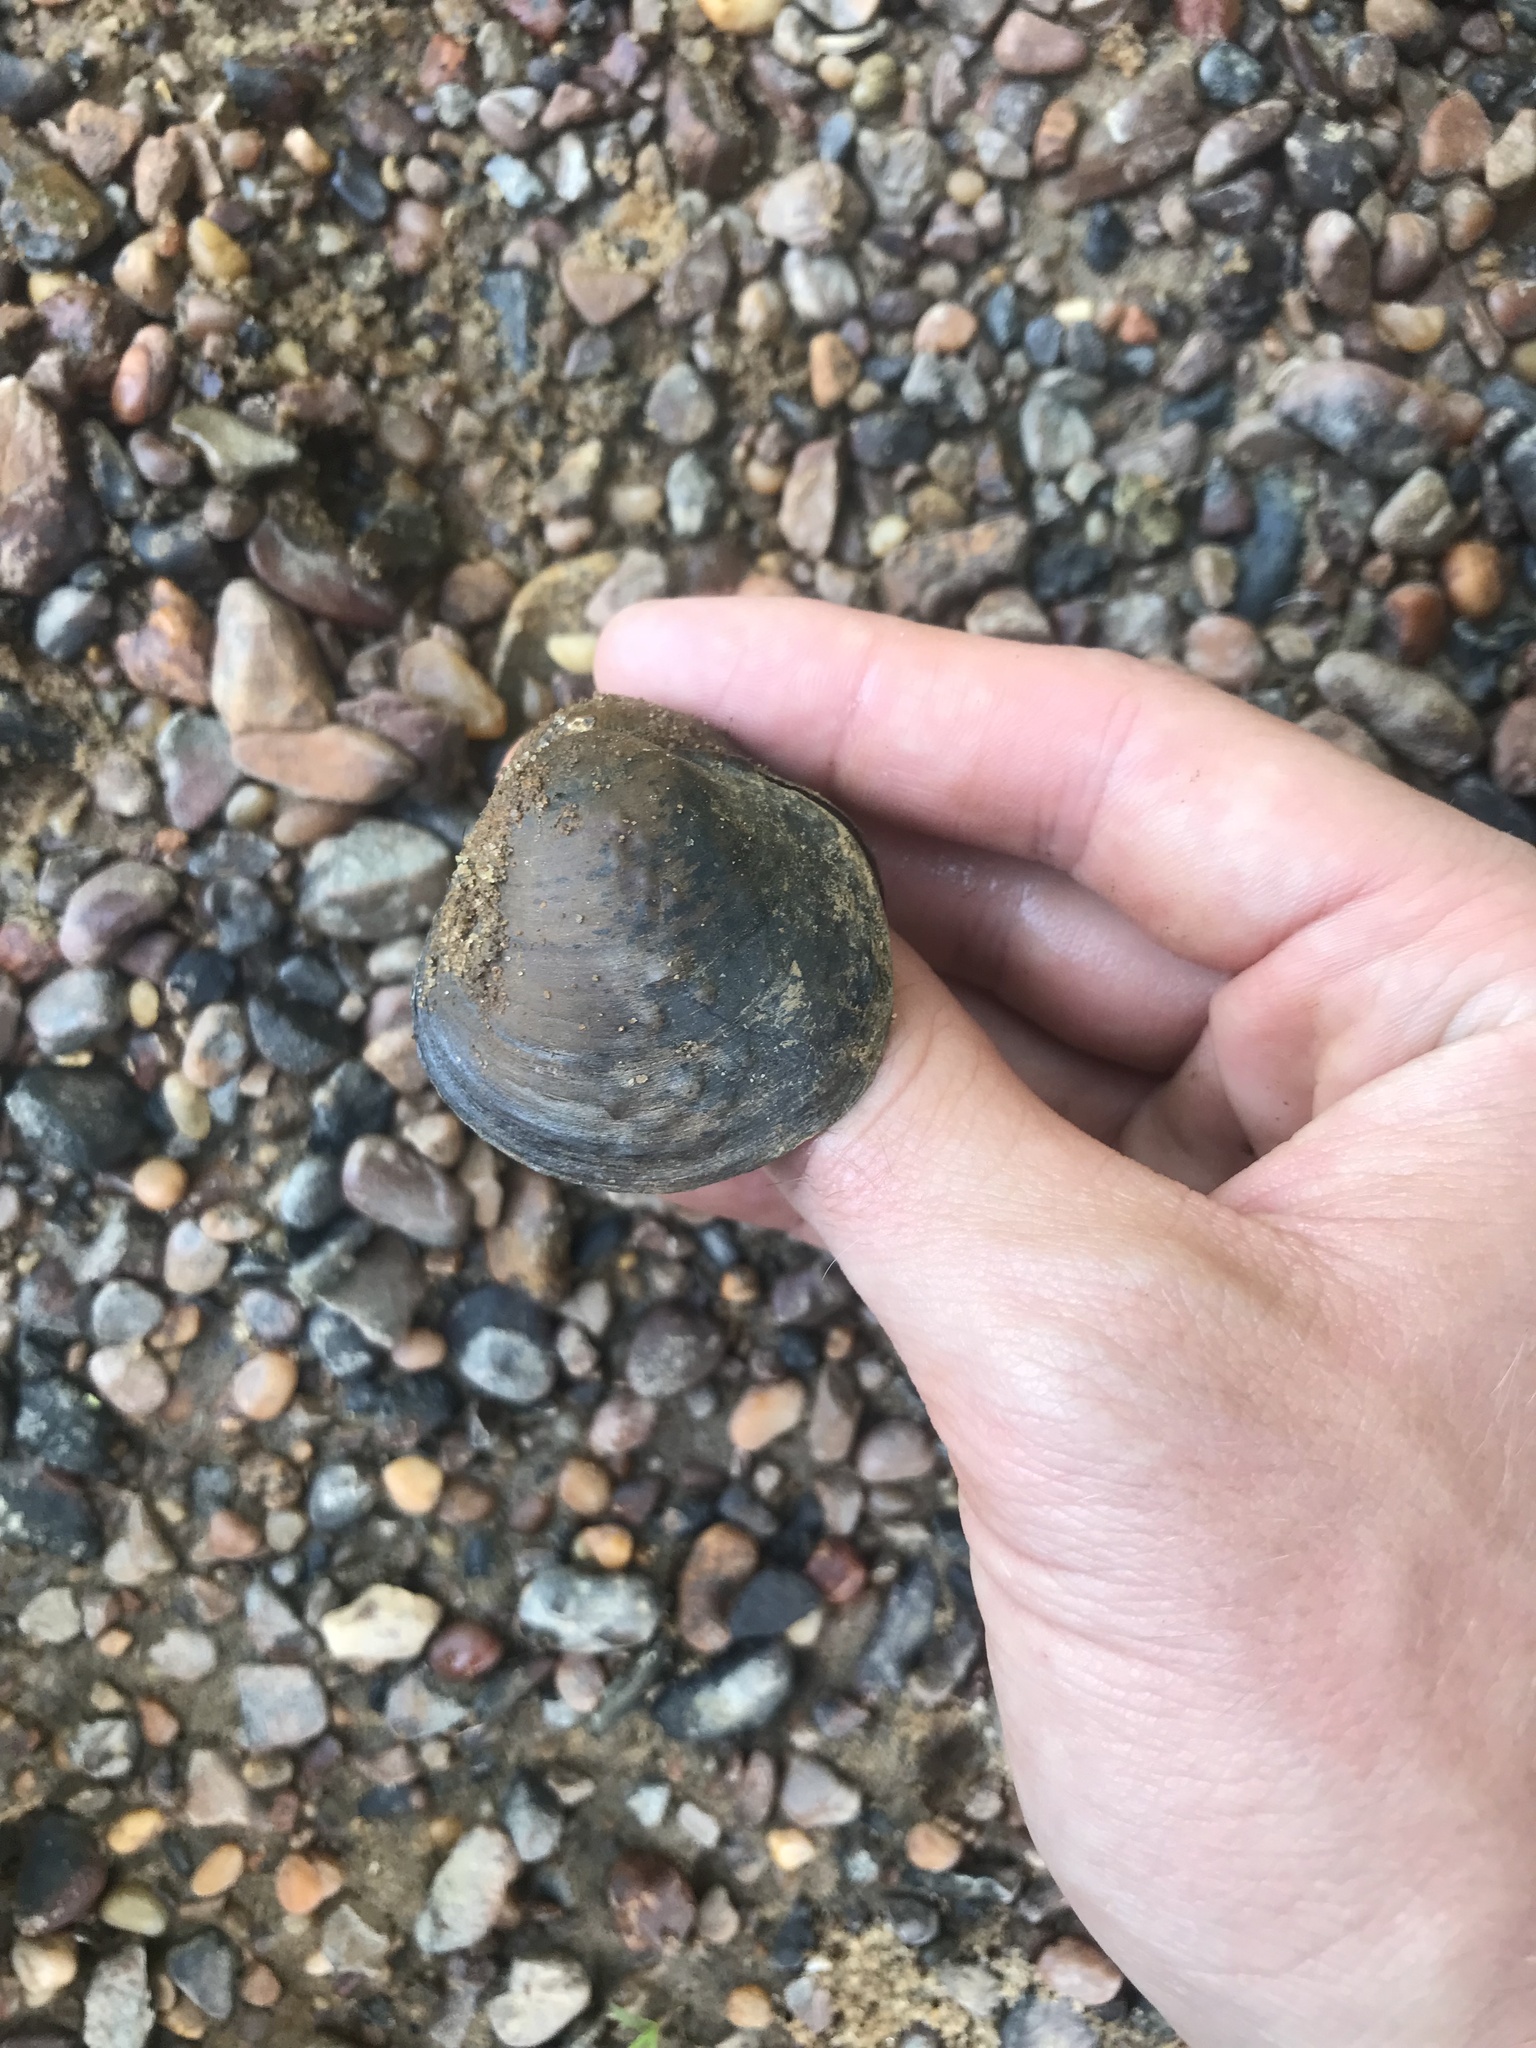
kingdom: Animalia
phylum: Mollusca
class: Bivalvia
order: Unionida
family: Unionidae
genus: Cyclonaias
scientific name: Cyclonaias kieneriana
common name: Coosa orb
